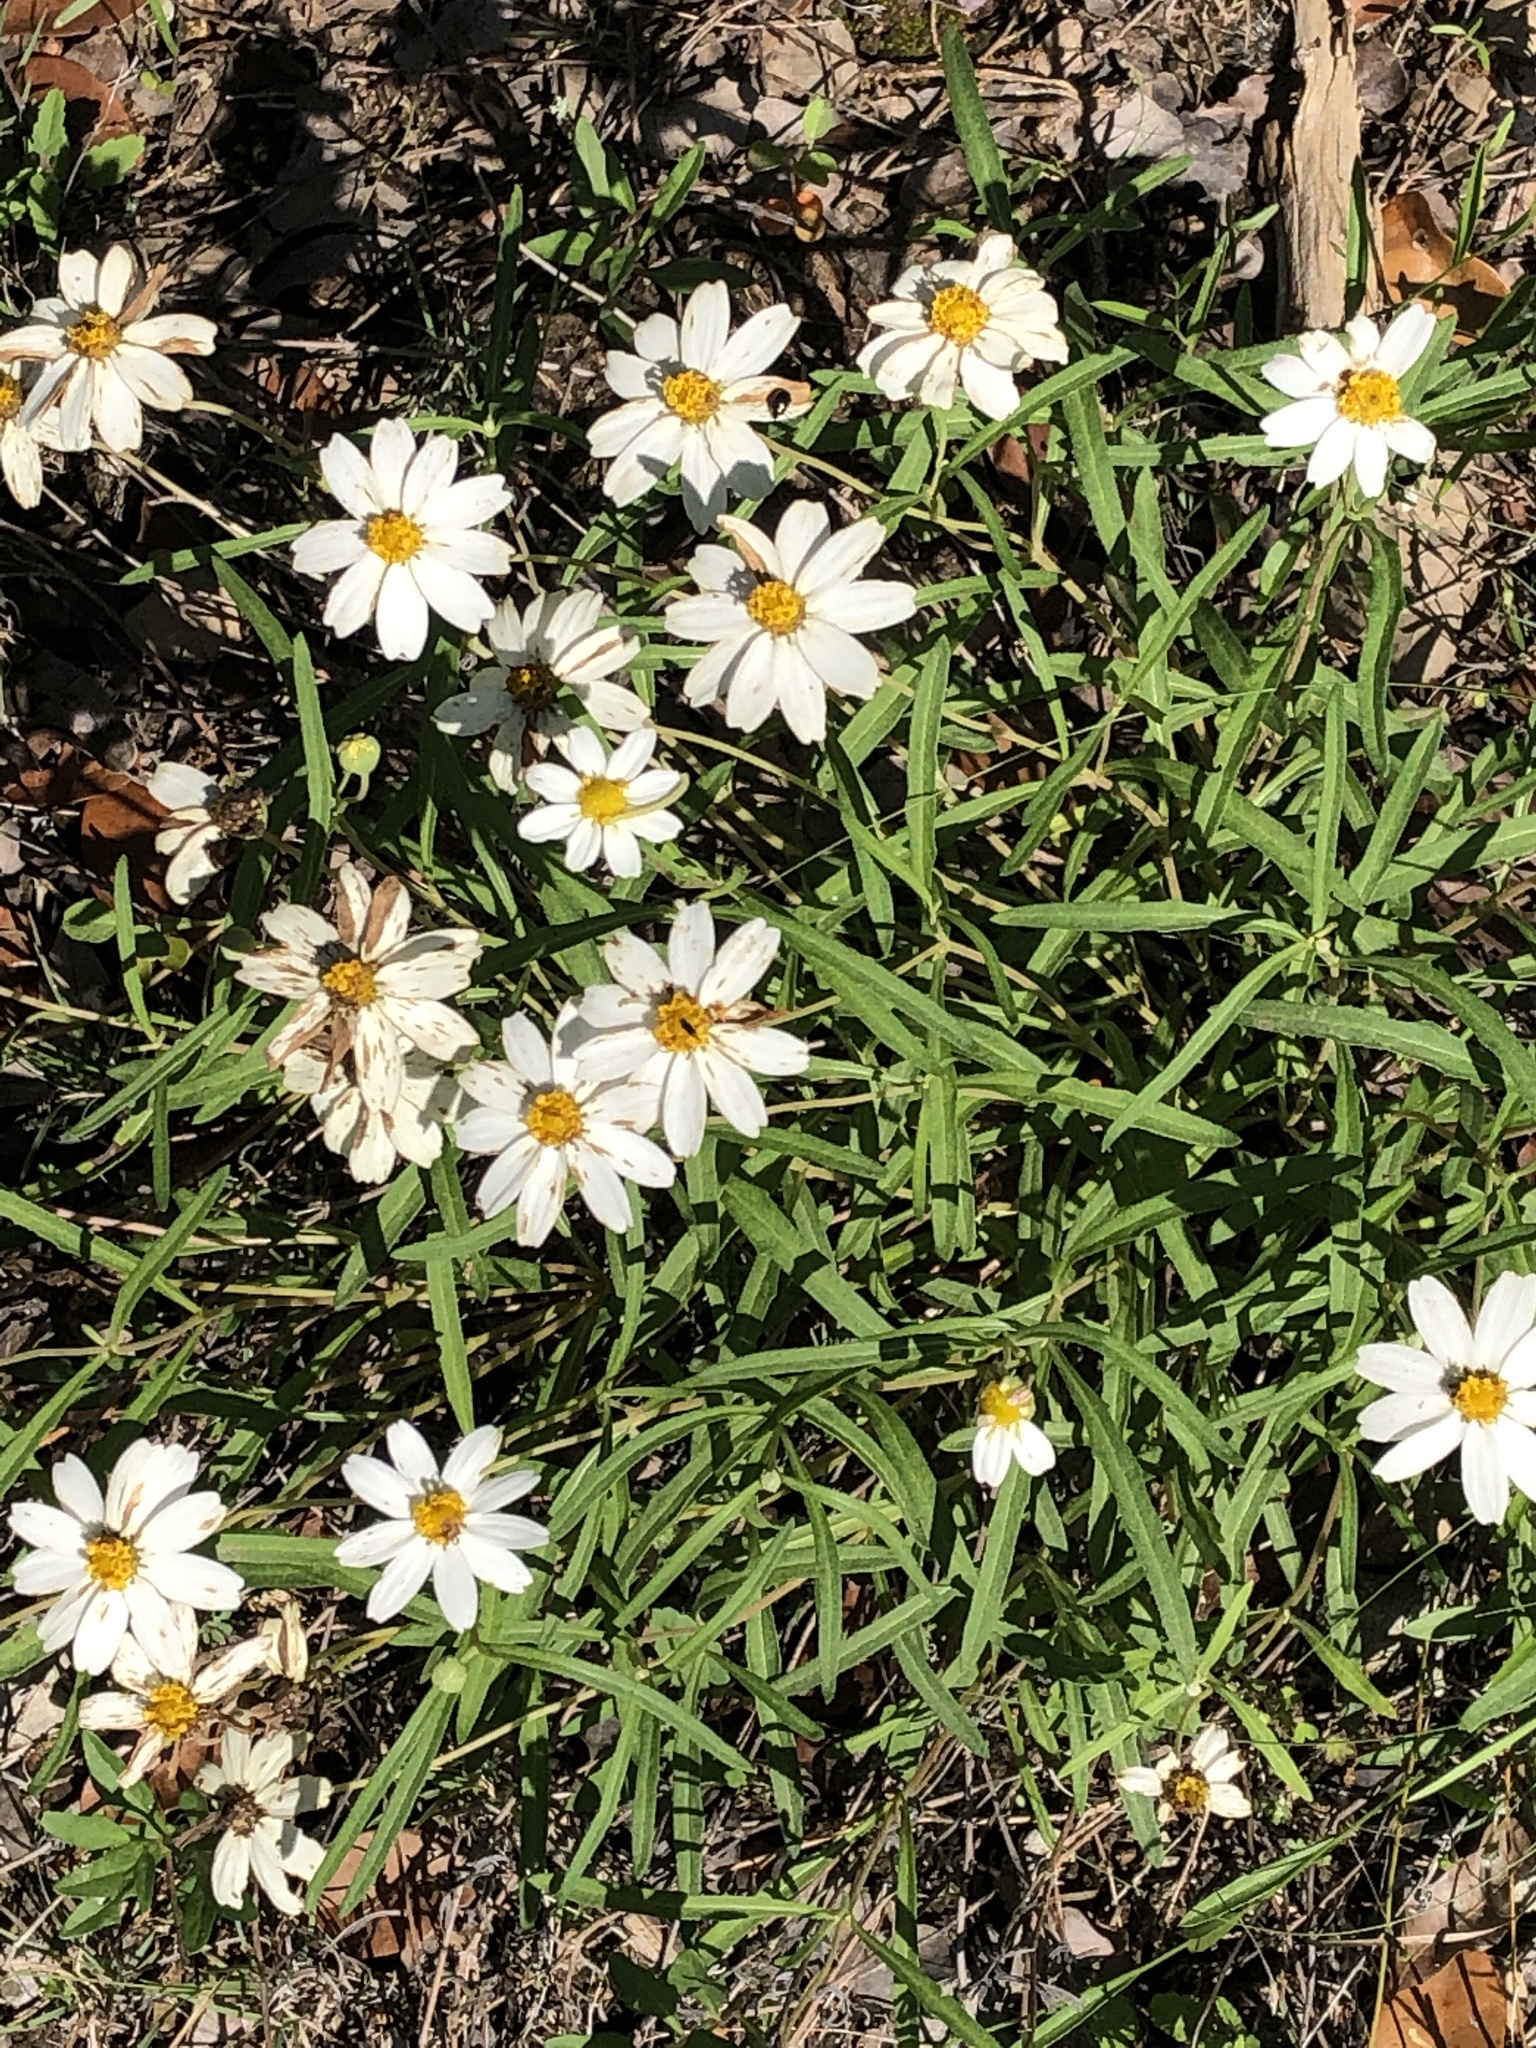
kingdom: Plantae
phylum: Tracheophyta
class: Magnoliopsida
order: Asterales
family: Asteraceae
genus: Melampodium
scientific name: Melampodium leucanthum
